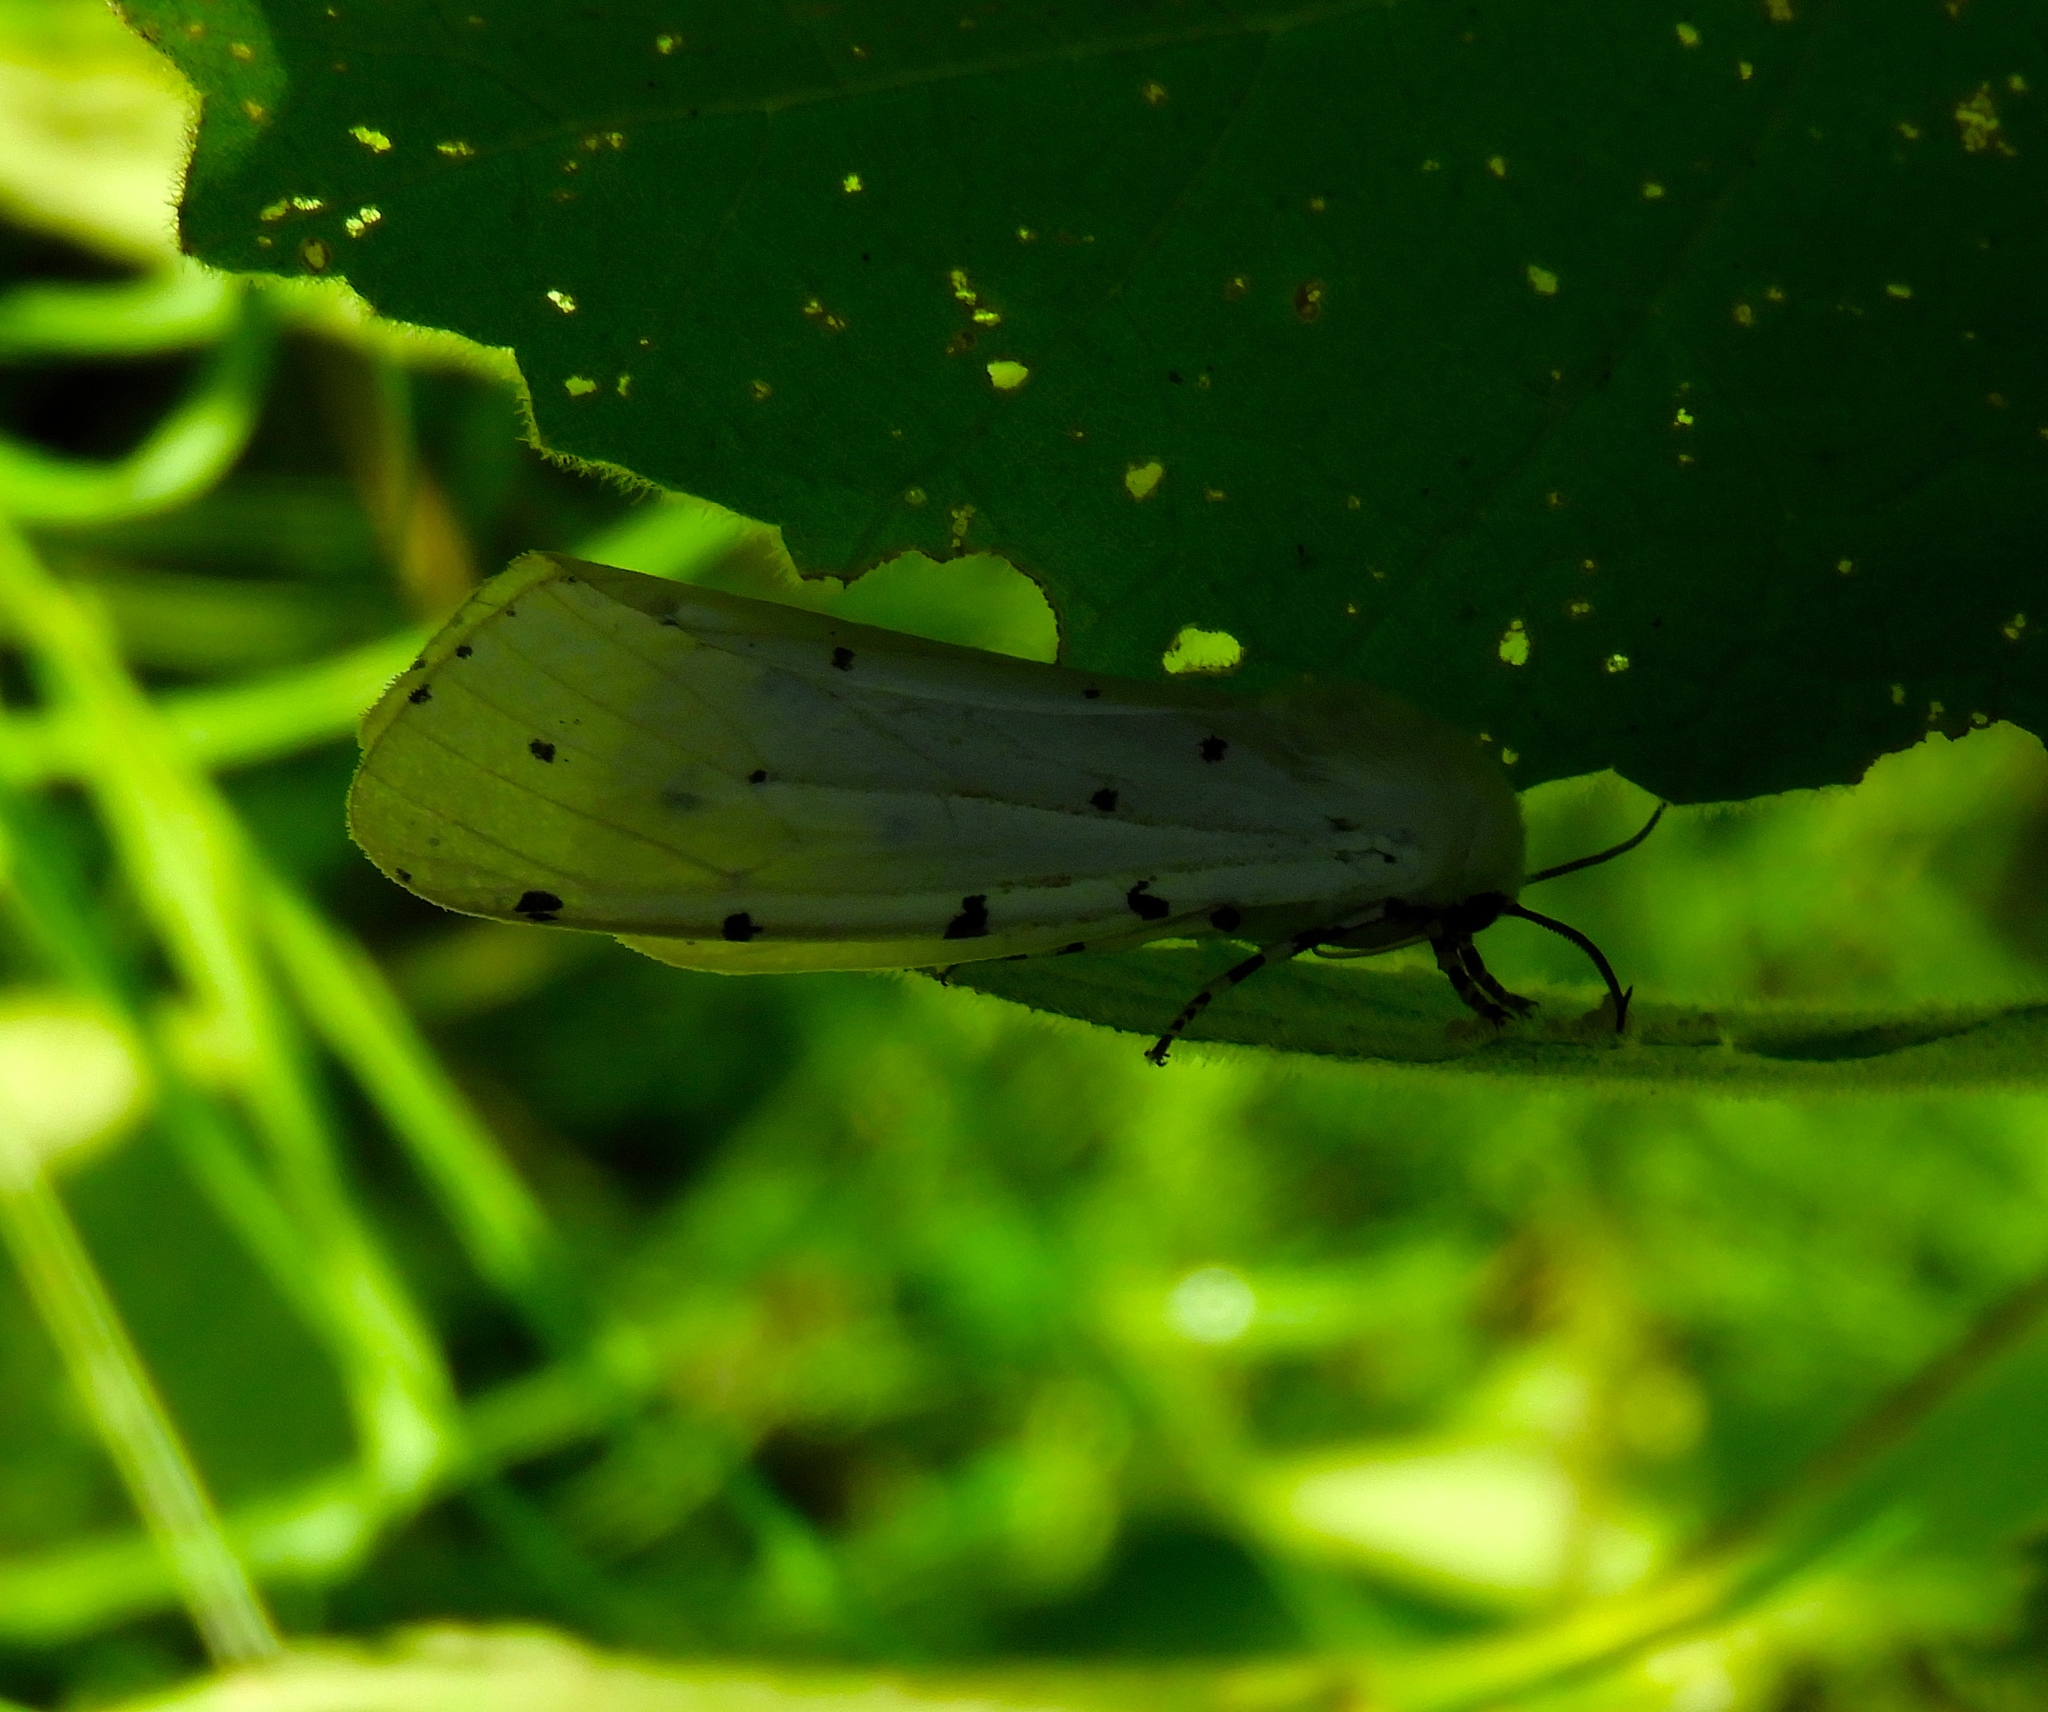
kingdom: Animalia
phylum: Arthropoda
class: Insecta
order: Lepidoptera
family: Erebidae
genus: Estigmene
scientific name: Estigmene acrea
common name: Salt marsh moth
